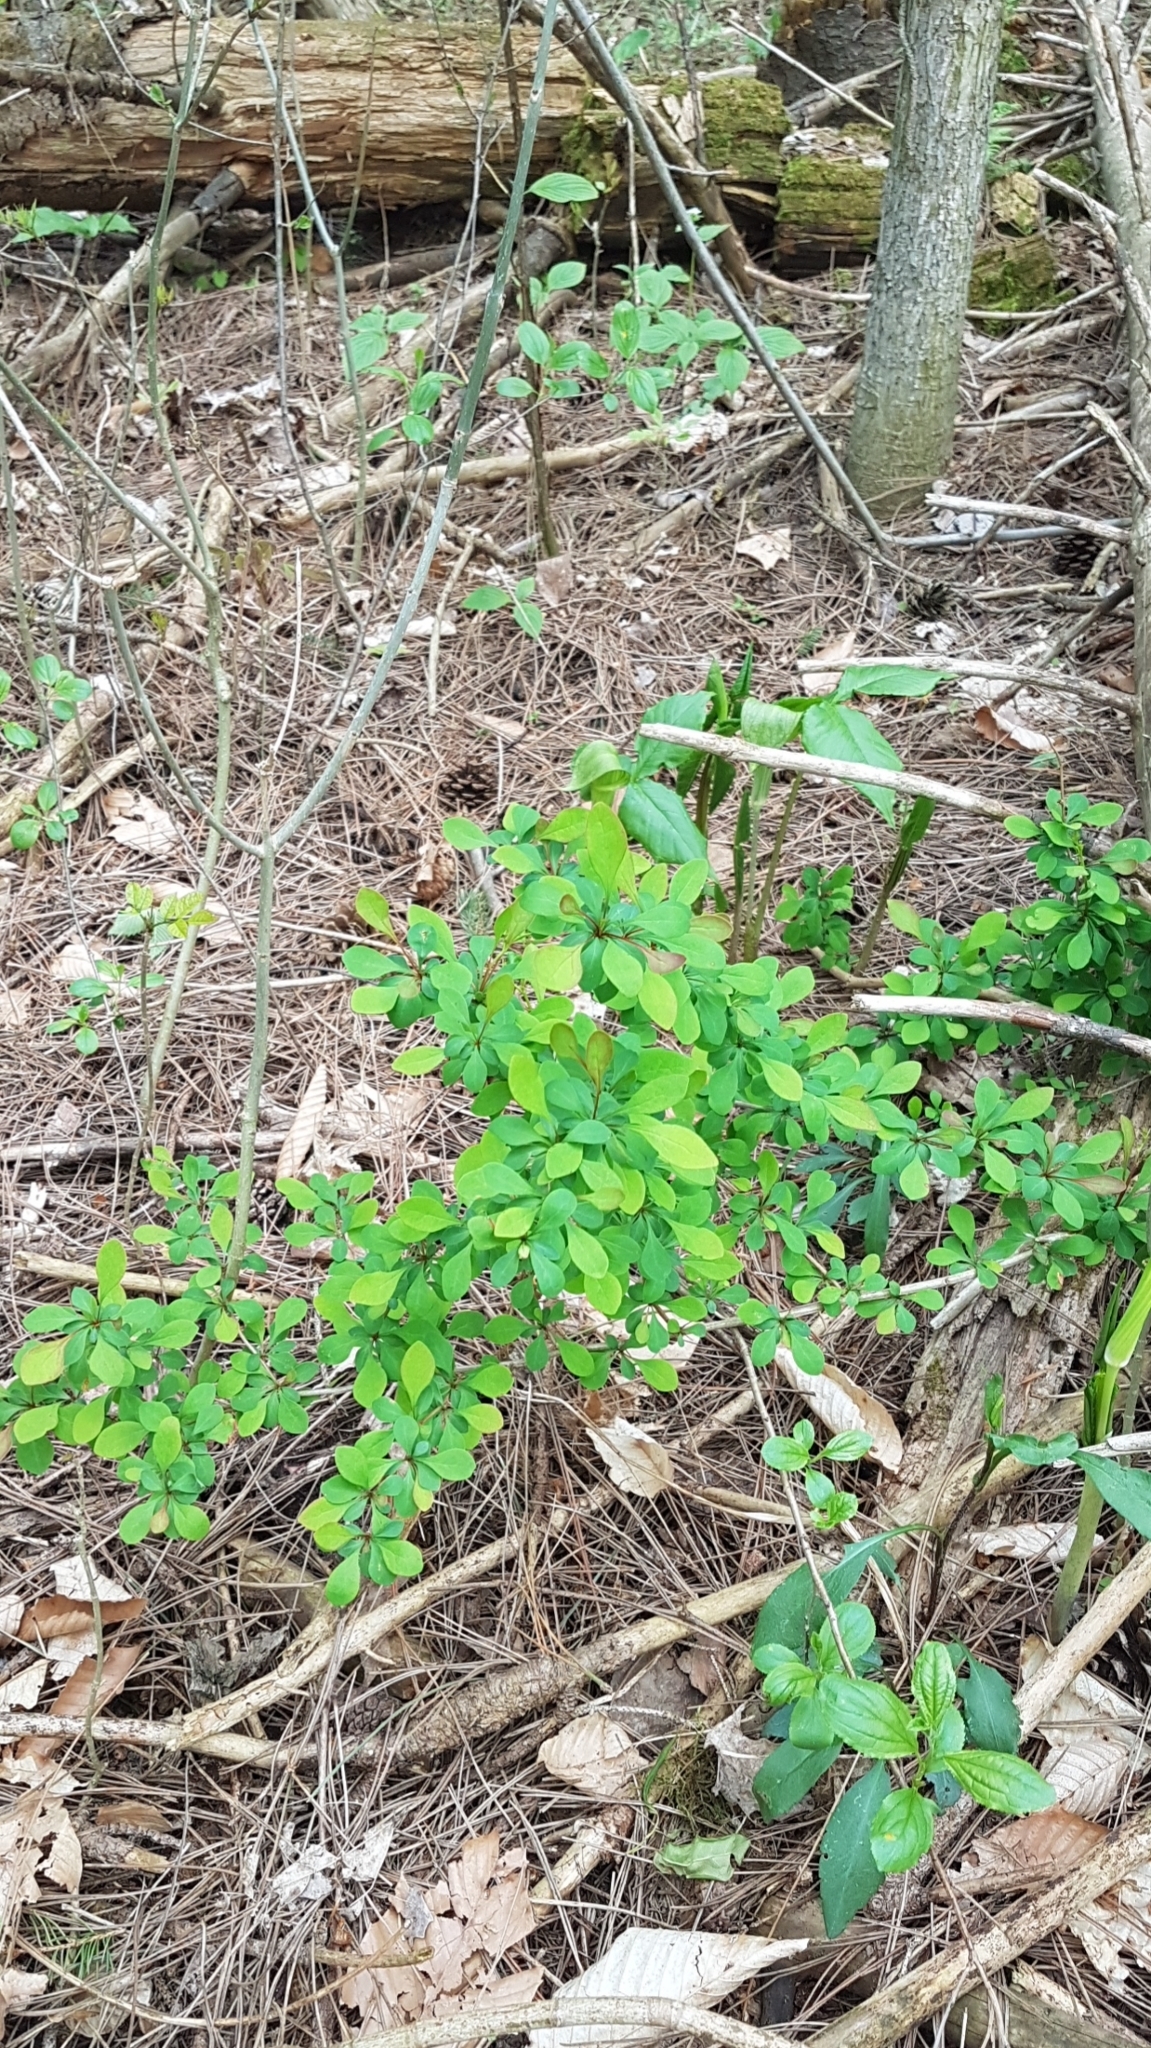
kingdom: Plantae
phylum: Tracheophyta
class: Magnoliopsida
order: Ranunculales
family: Berberidaceae
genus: Berberis
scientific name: Berberis thunbergii
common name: Japanese barberry
